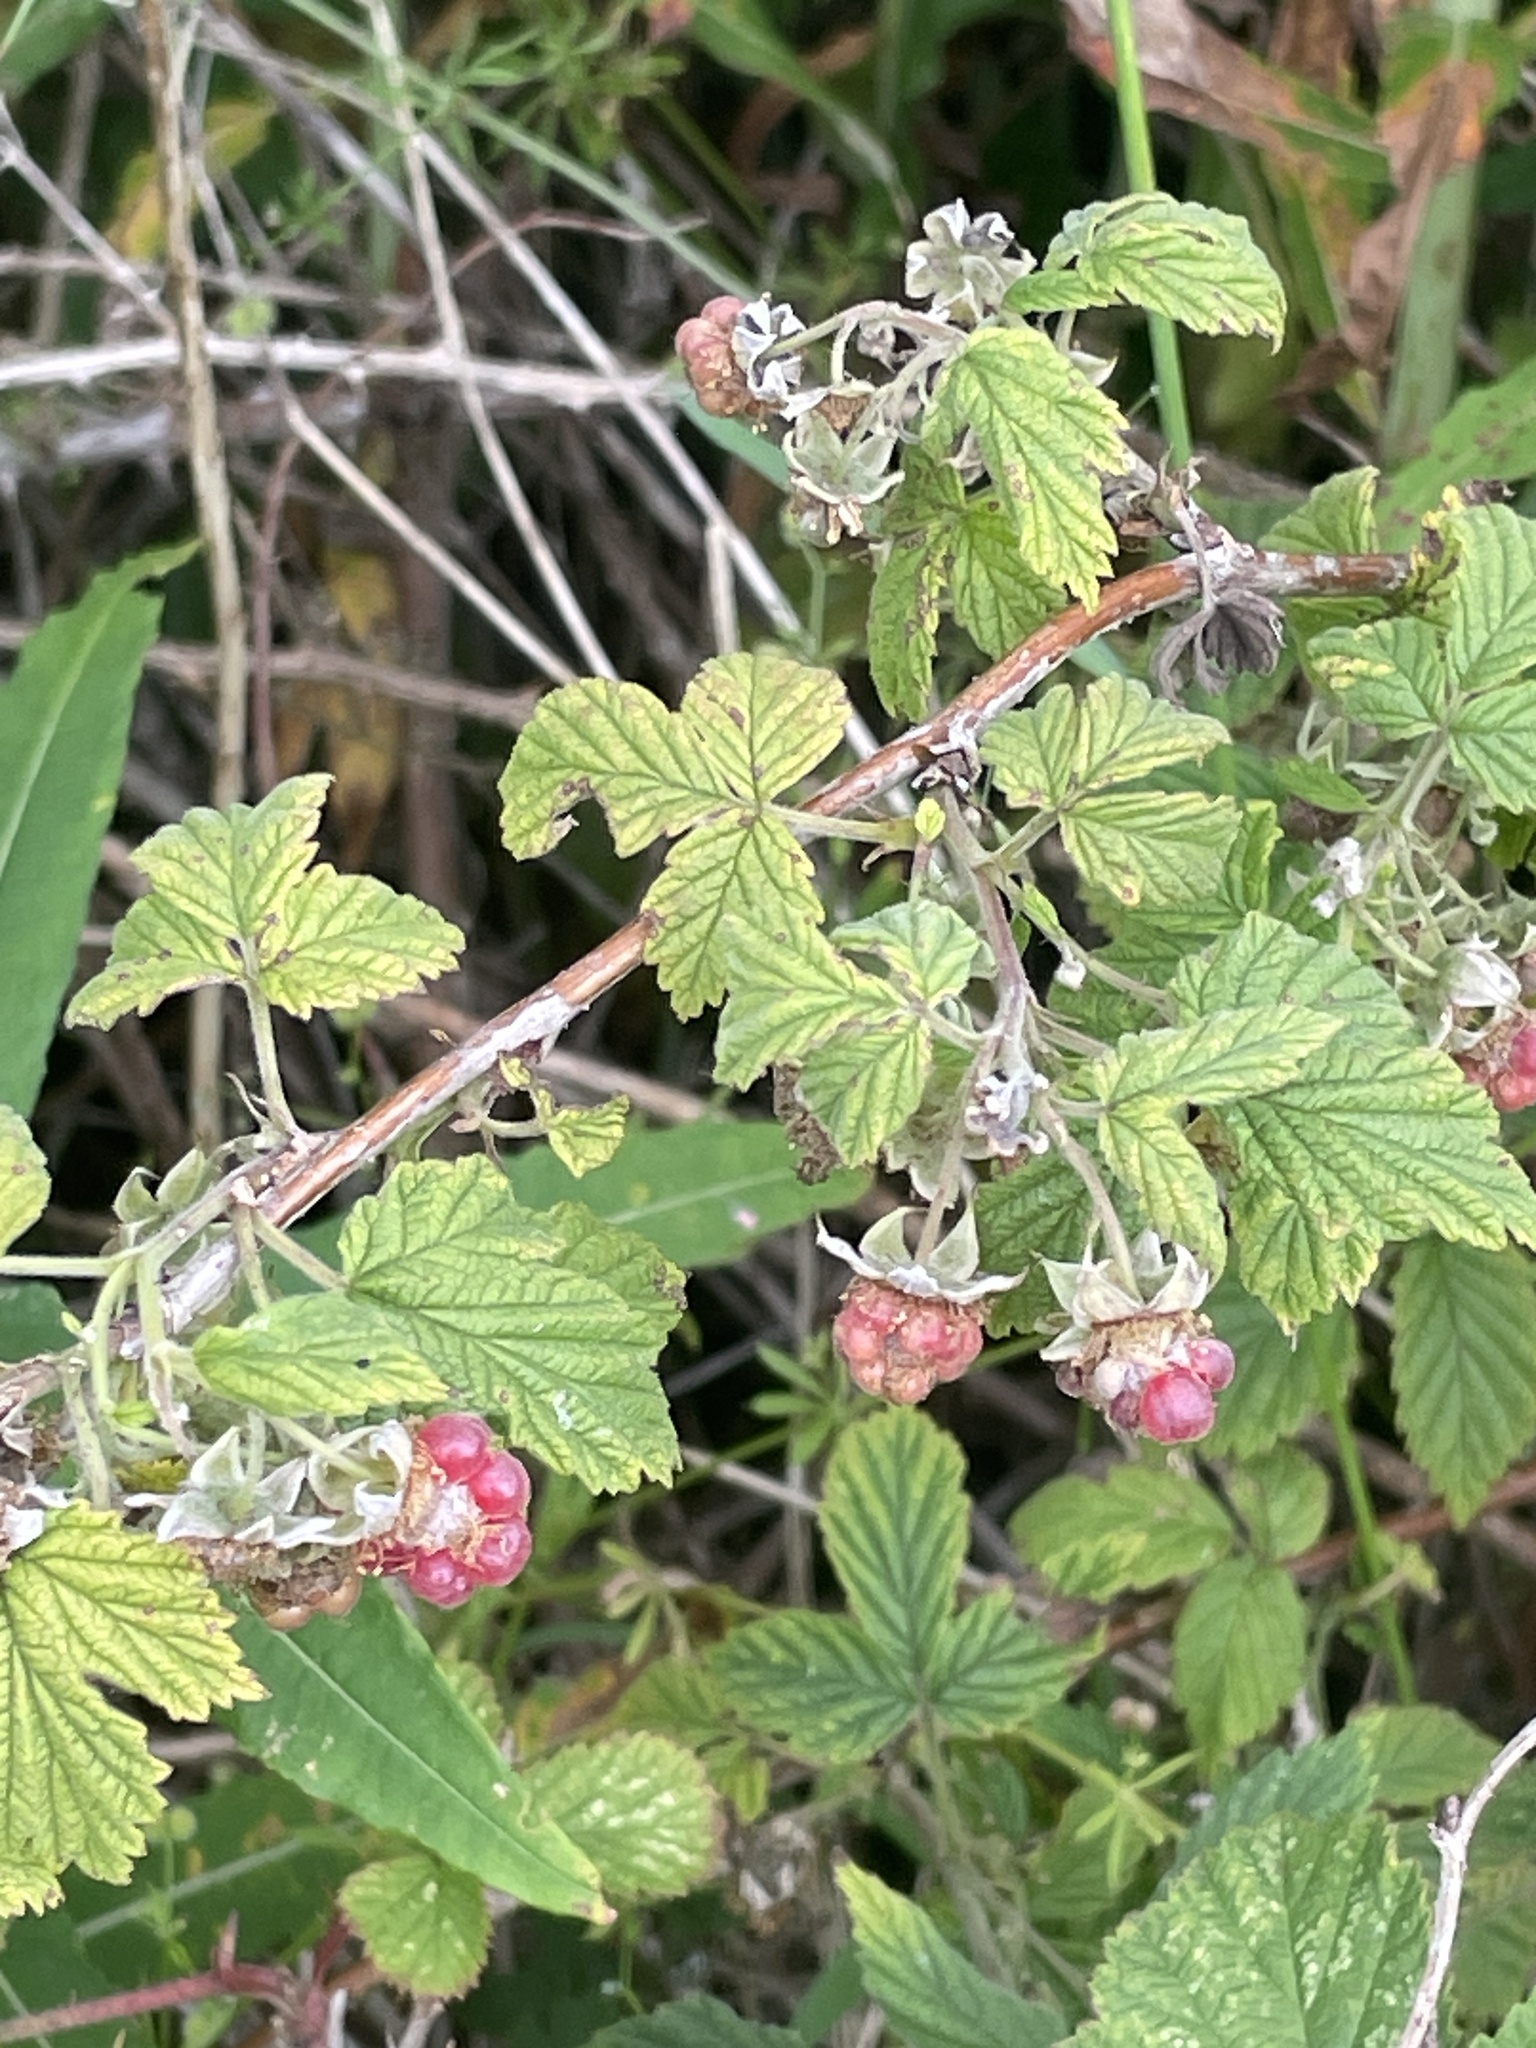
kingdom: Plantae
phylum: Tracheophyta
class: Magnoliopsida
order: Rosales
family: Rosaceae
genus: Rubus
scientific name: Rubus idaeus
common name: Raspberry
